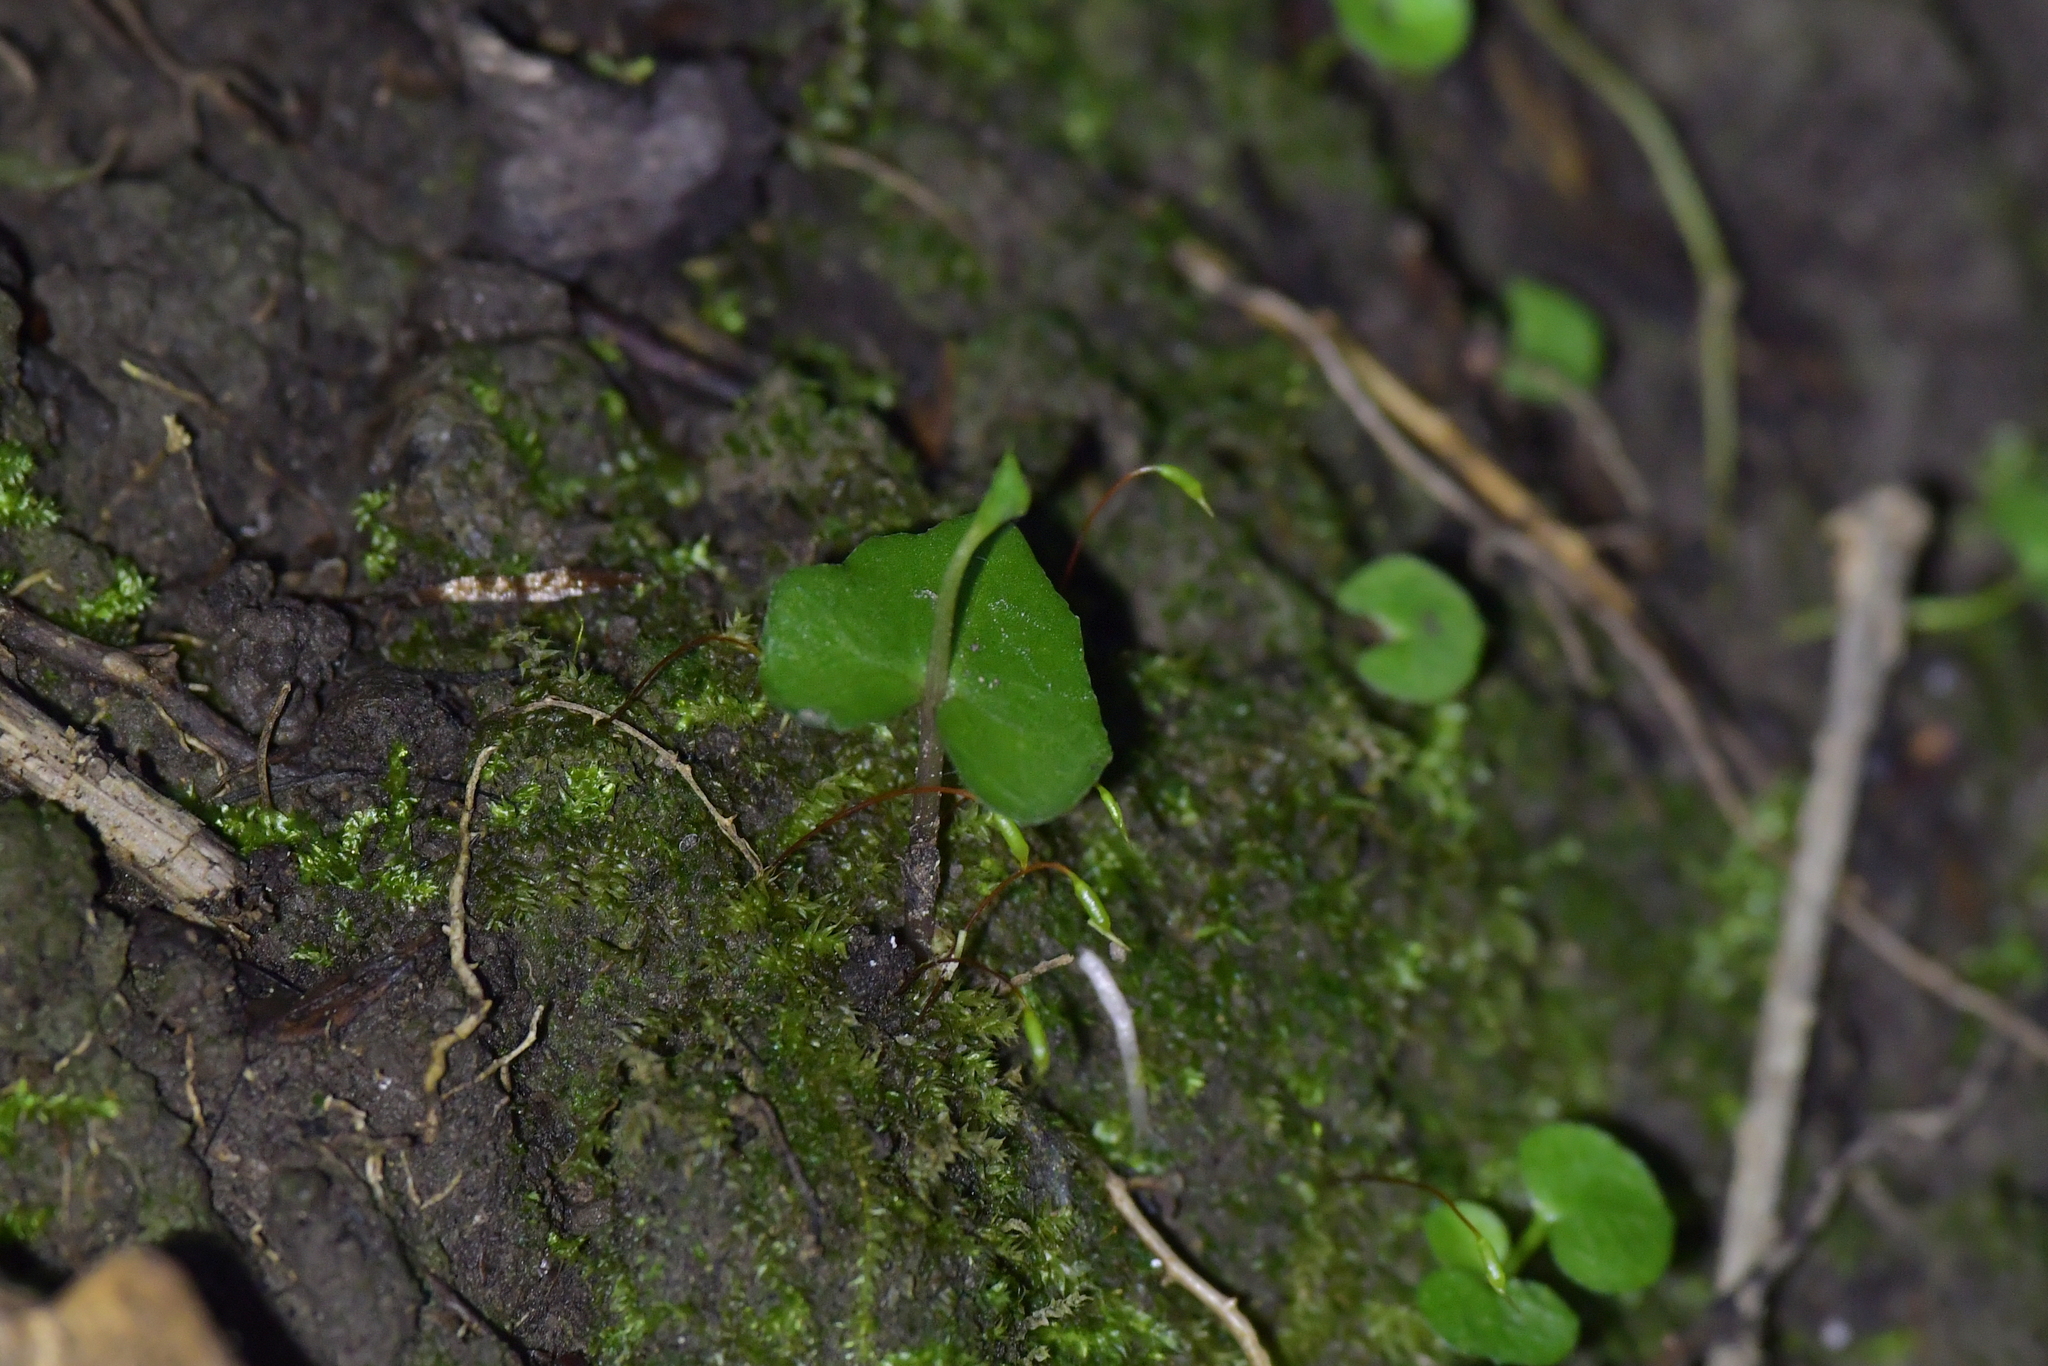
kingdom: Plantae
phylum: Tracheophyta
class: Liliopsida
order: Asparagales
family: Orchidaceae
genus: Acianthus
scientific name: Acianthus sinclairii
